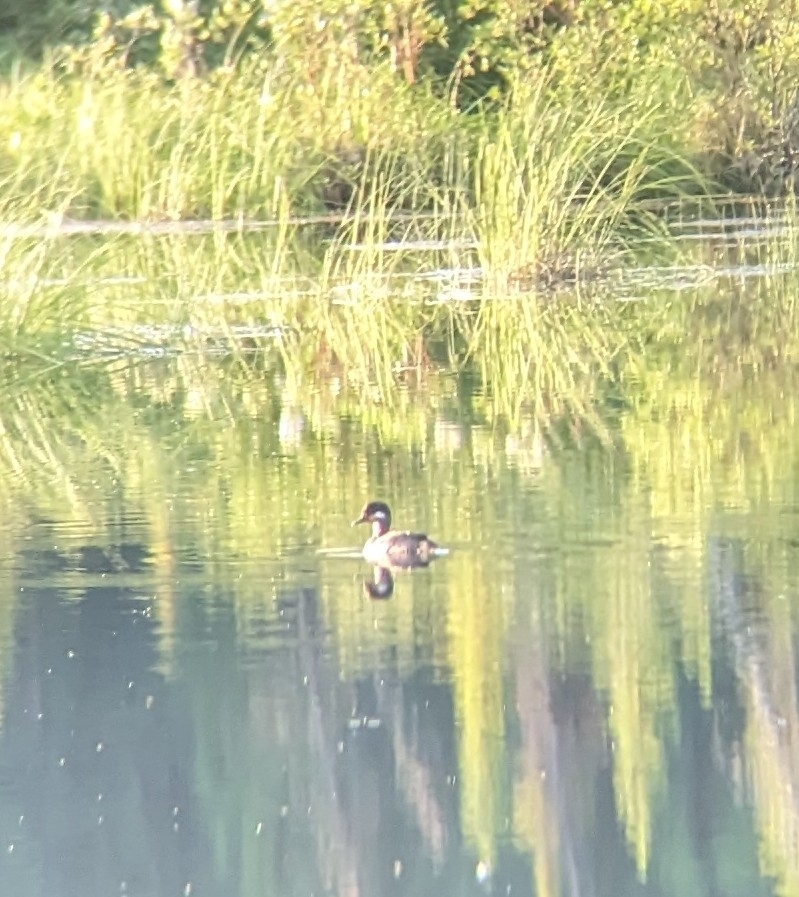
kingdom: Animalia
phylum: Chordata
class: Aves
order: Anseriformes
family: Anatidae
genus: Bucephala
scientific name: Bucephala albeola
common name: Bufflehead
